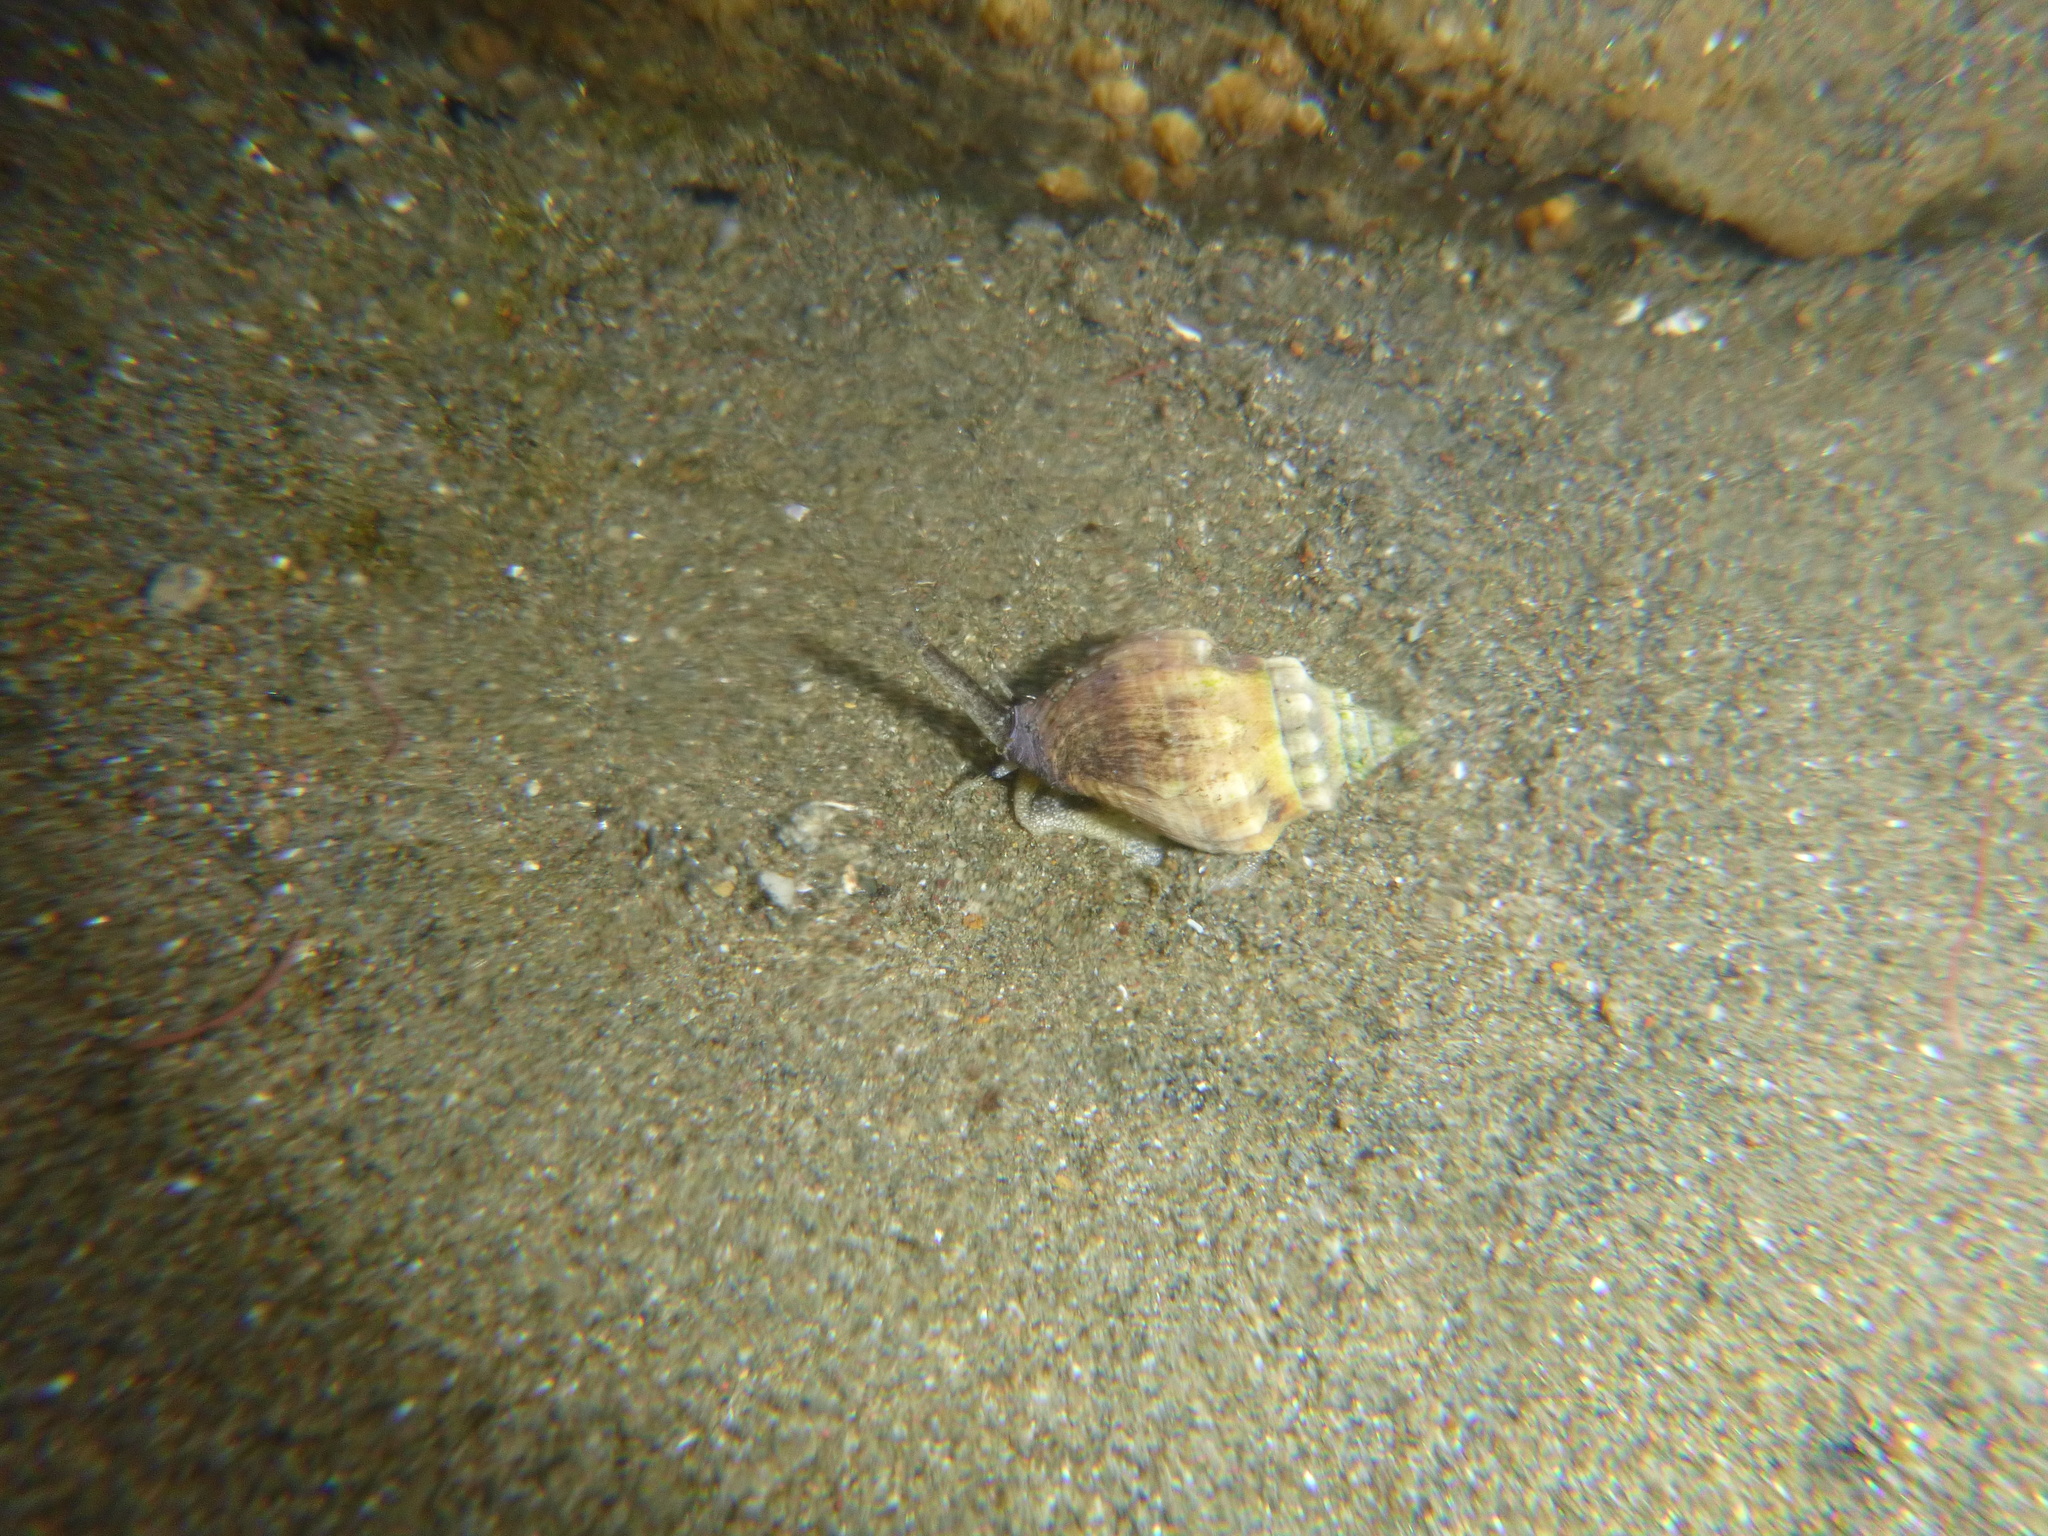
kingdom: Animalia
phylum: Mollusca
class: Gastropoda
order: Neogastropoda
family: Cominellidae
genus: Cominella
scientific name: Cominella glandiformis
